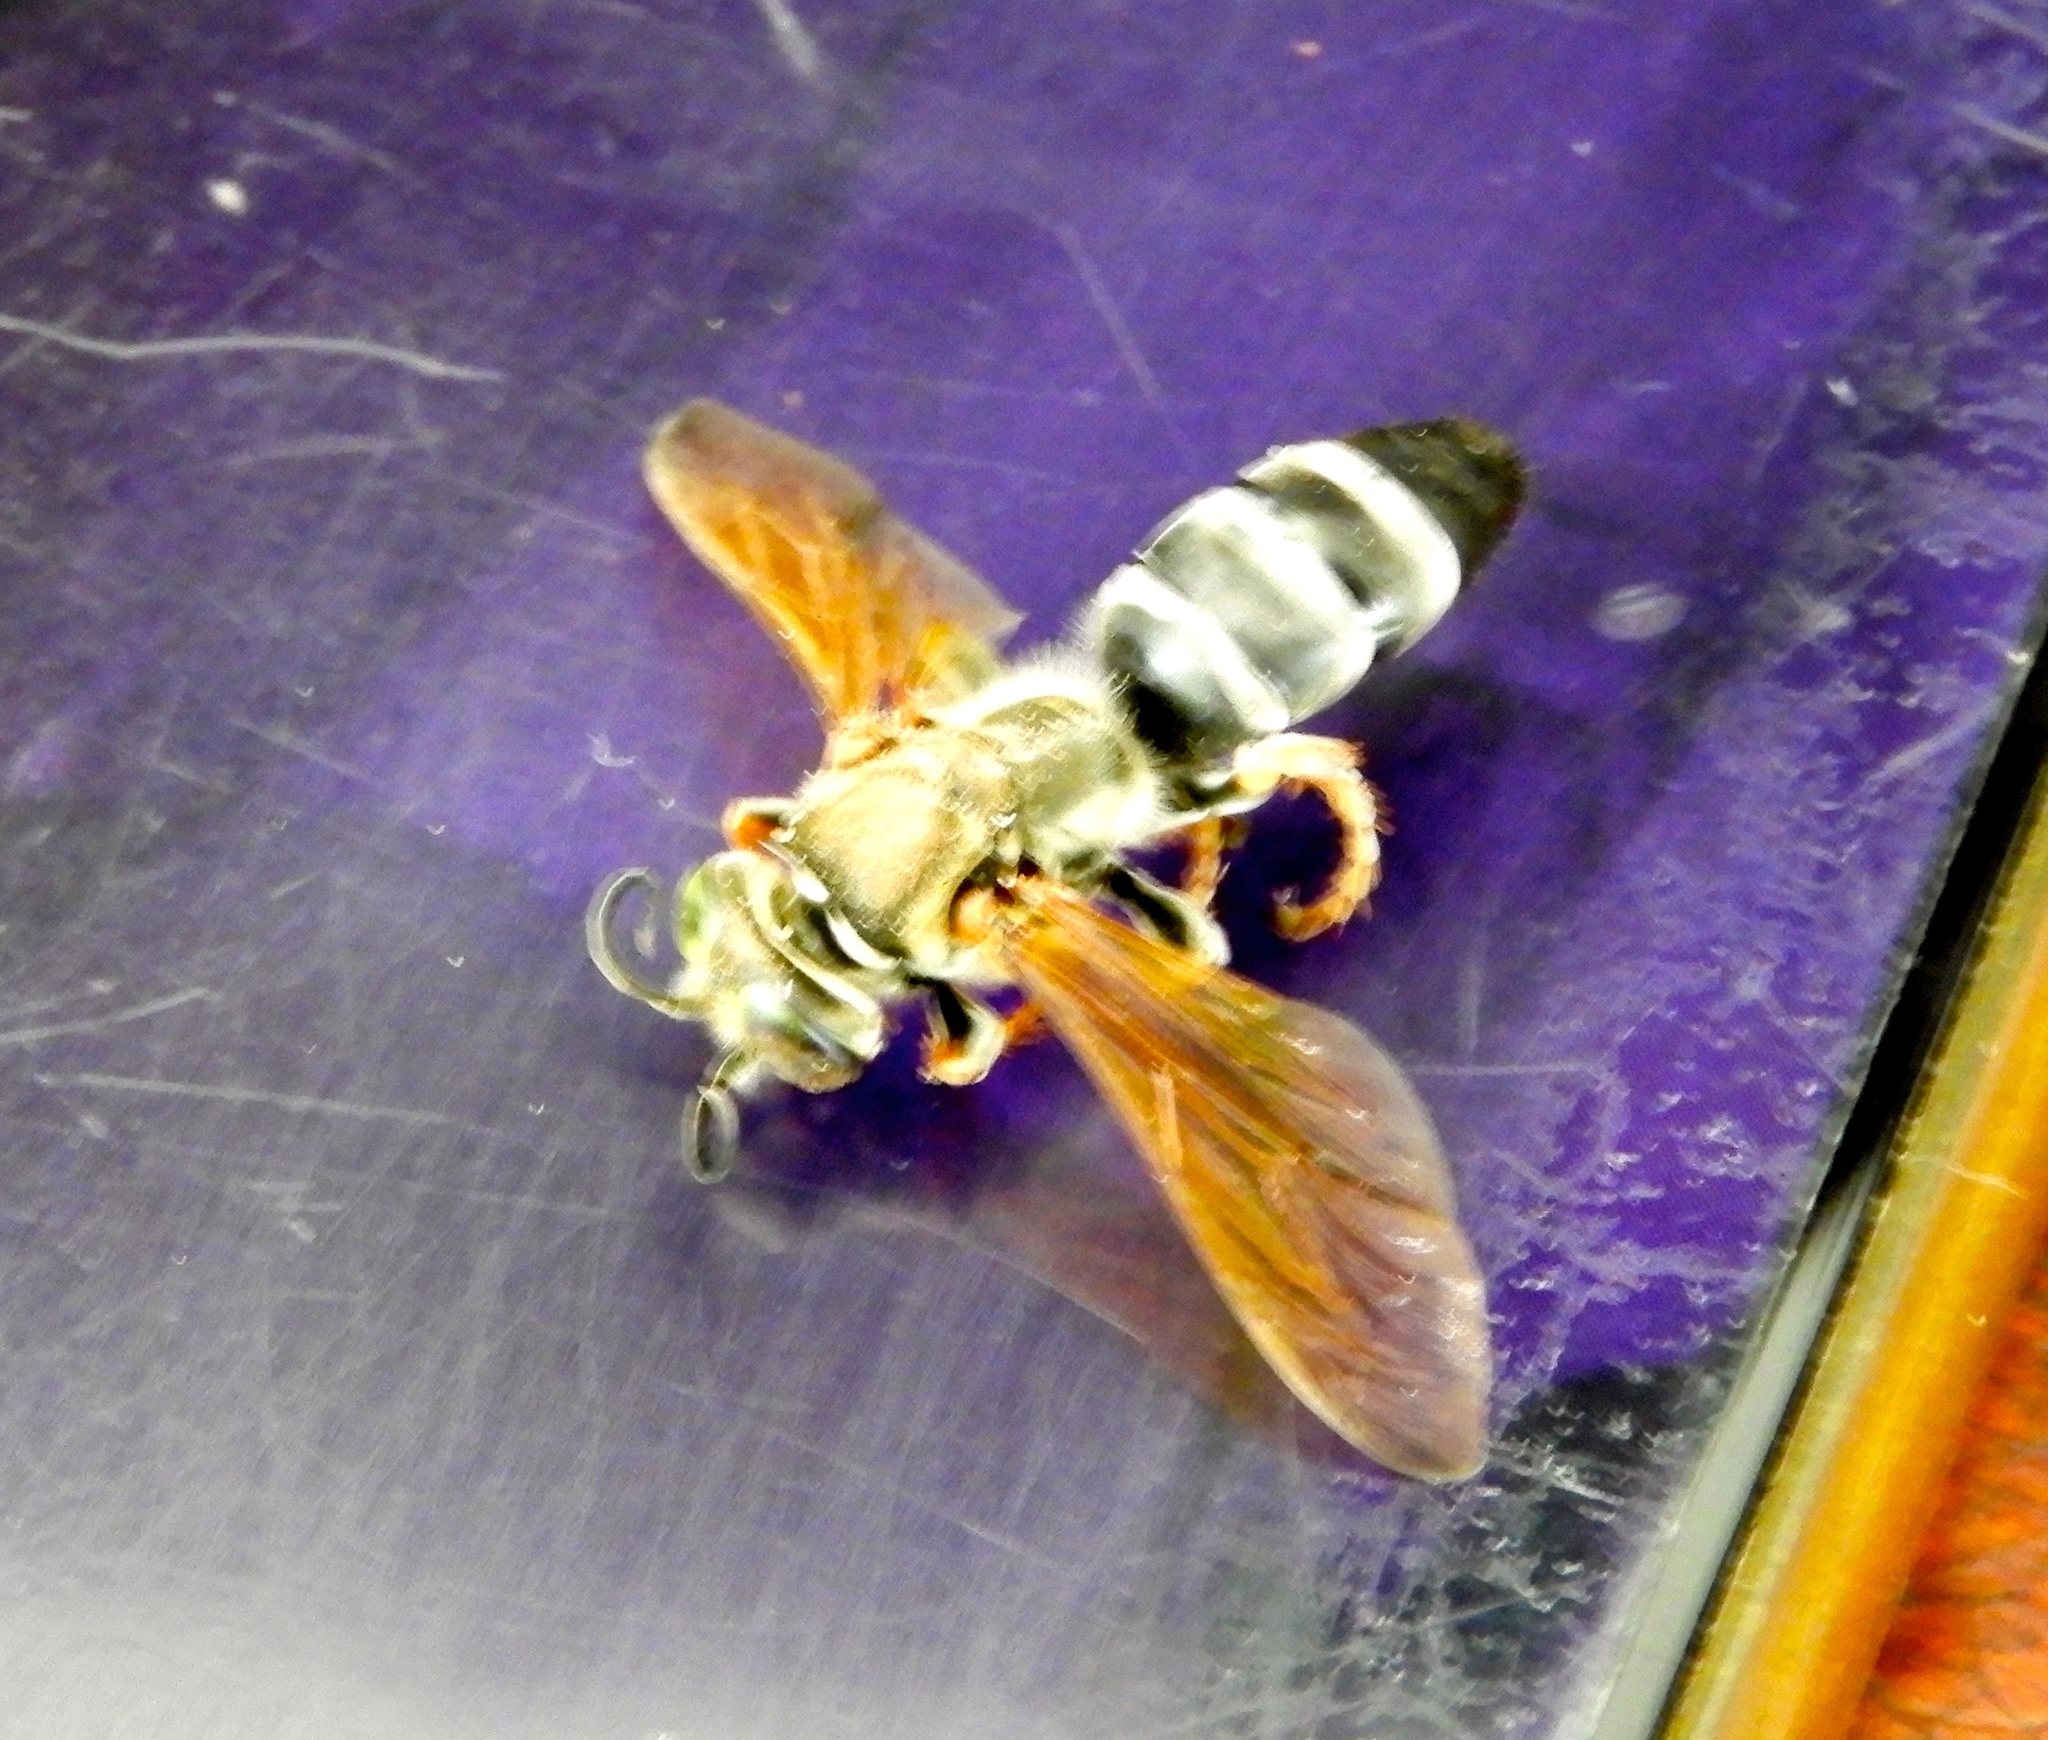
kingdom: Animalia
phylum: Arthropoda
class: Insecta
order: Hymenoptera
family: Crabronidae
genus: Tachytes
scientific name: Tachytes
